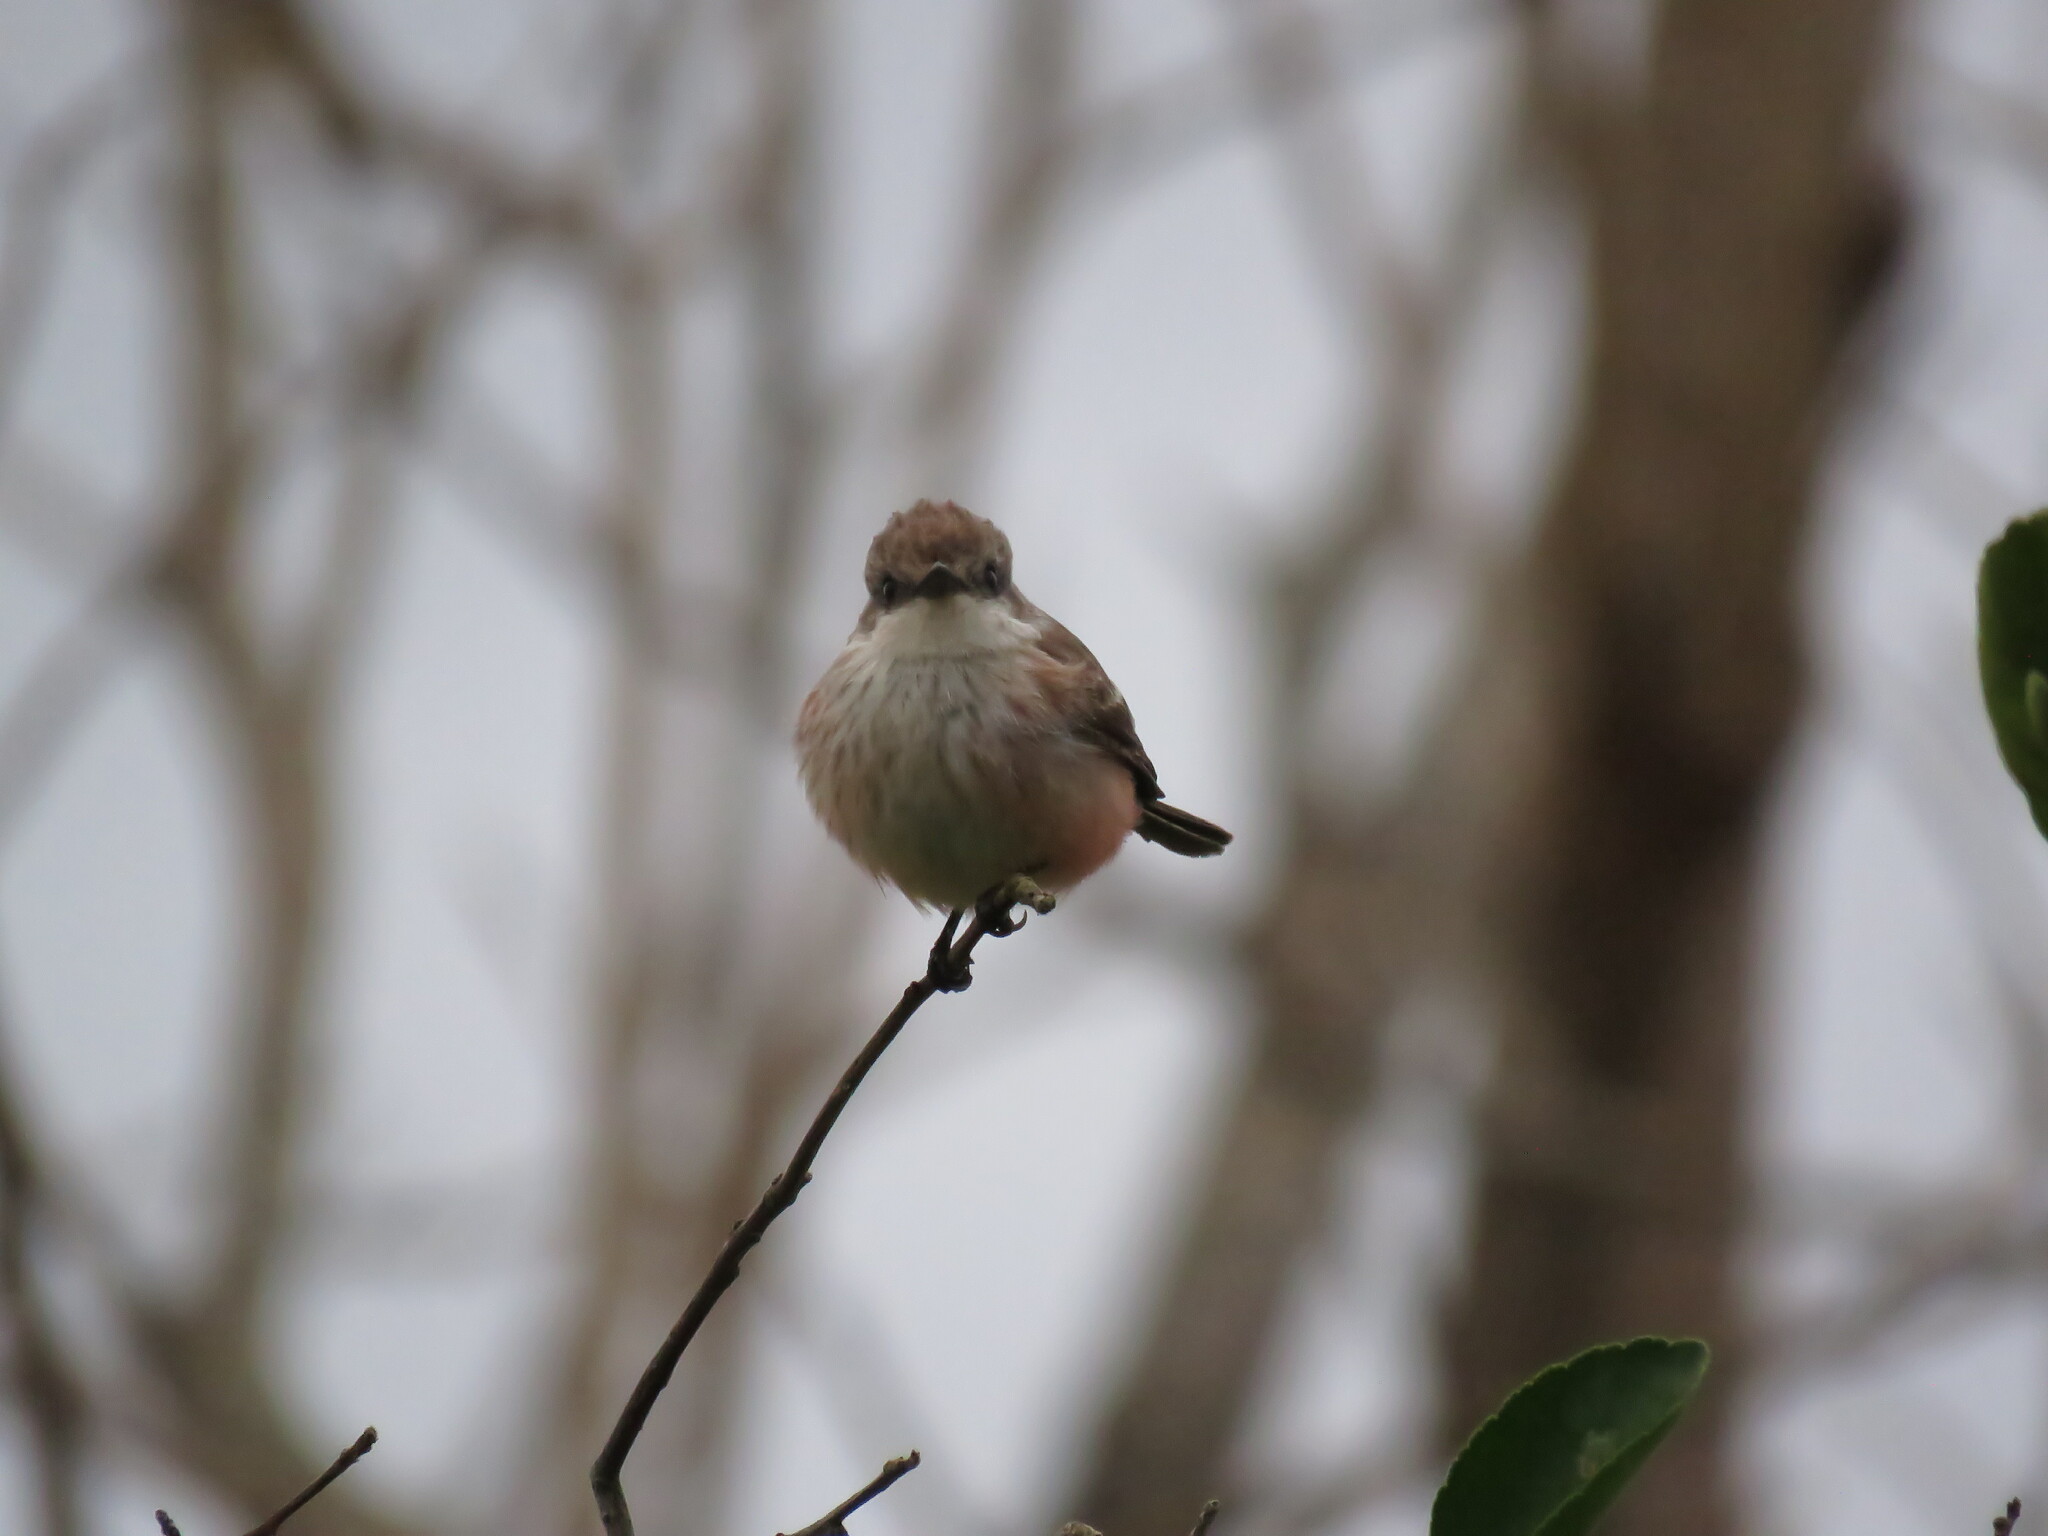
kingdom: Animalia
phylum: Chordata
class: Aves
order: Passeriformes
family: Tyrannidae
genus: Pyrocephalus
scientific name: Pyrocephalus rubinus
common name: Vermilion flycatcher
